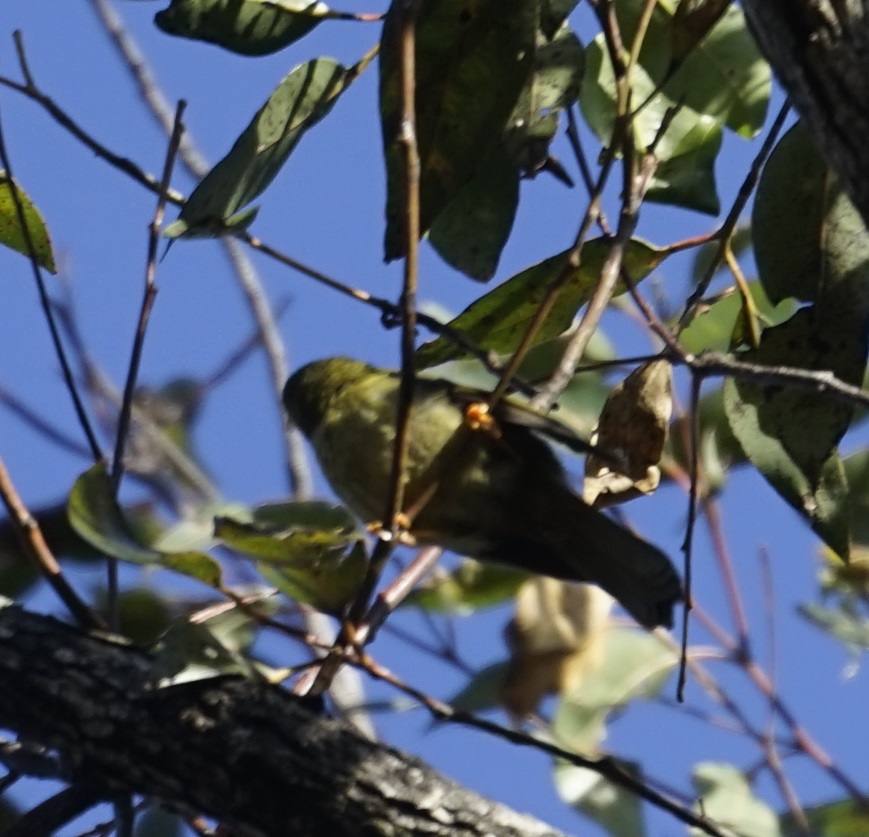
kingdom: Animalia
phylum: Chordata
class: Aves
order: Passeriformes
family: Meliphagidae
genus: Manorina
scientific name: Manorina melanophrys
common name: Bell miner
